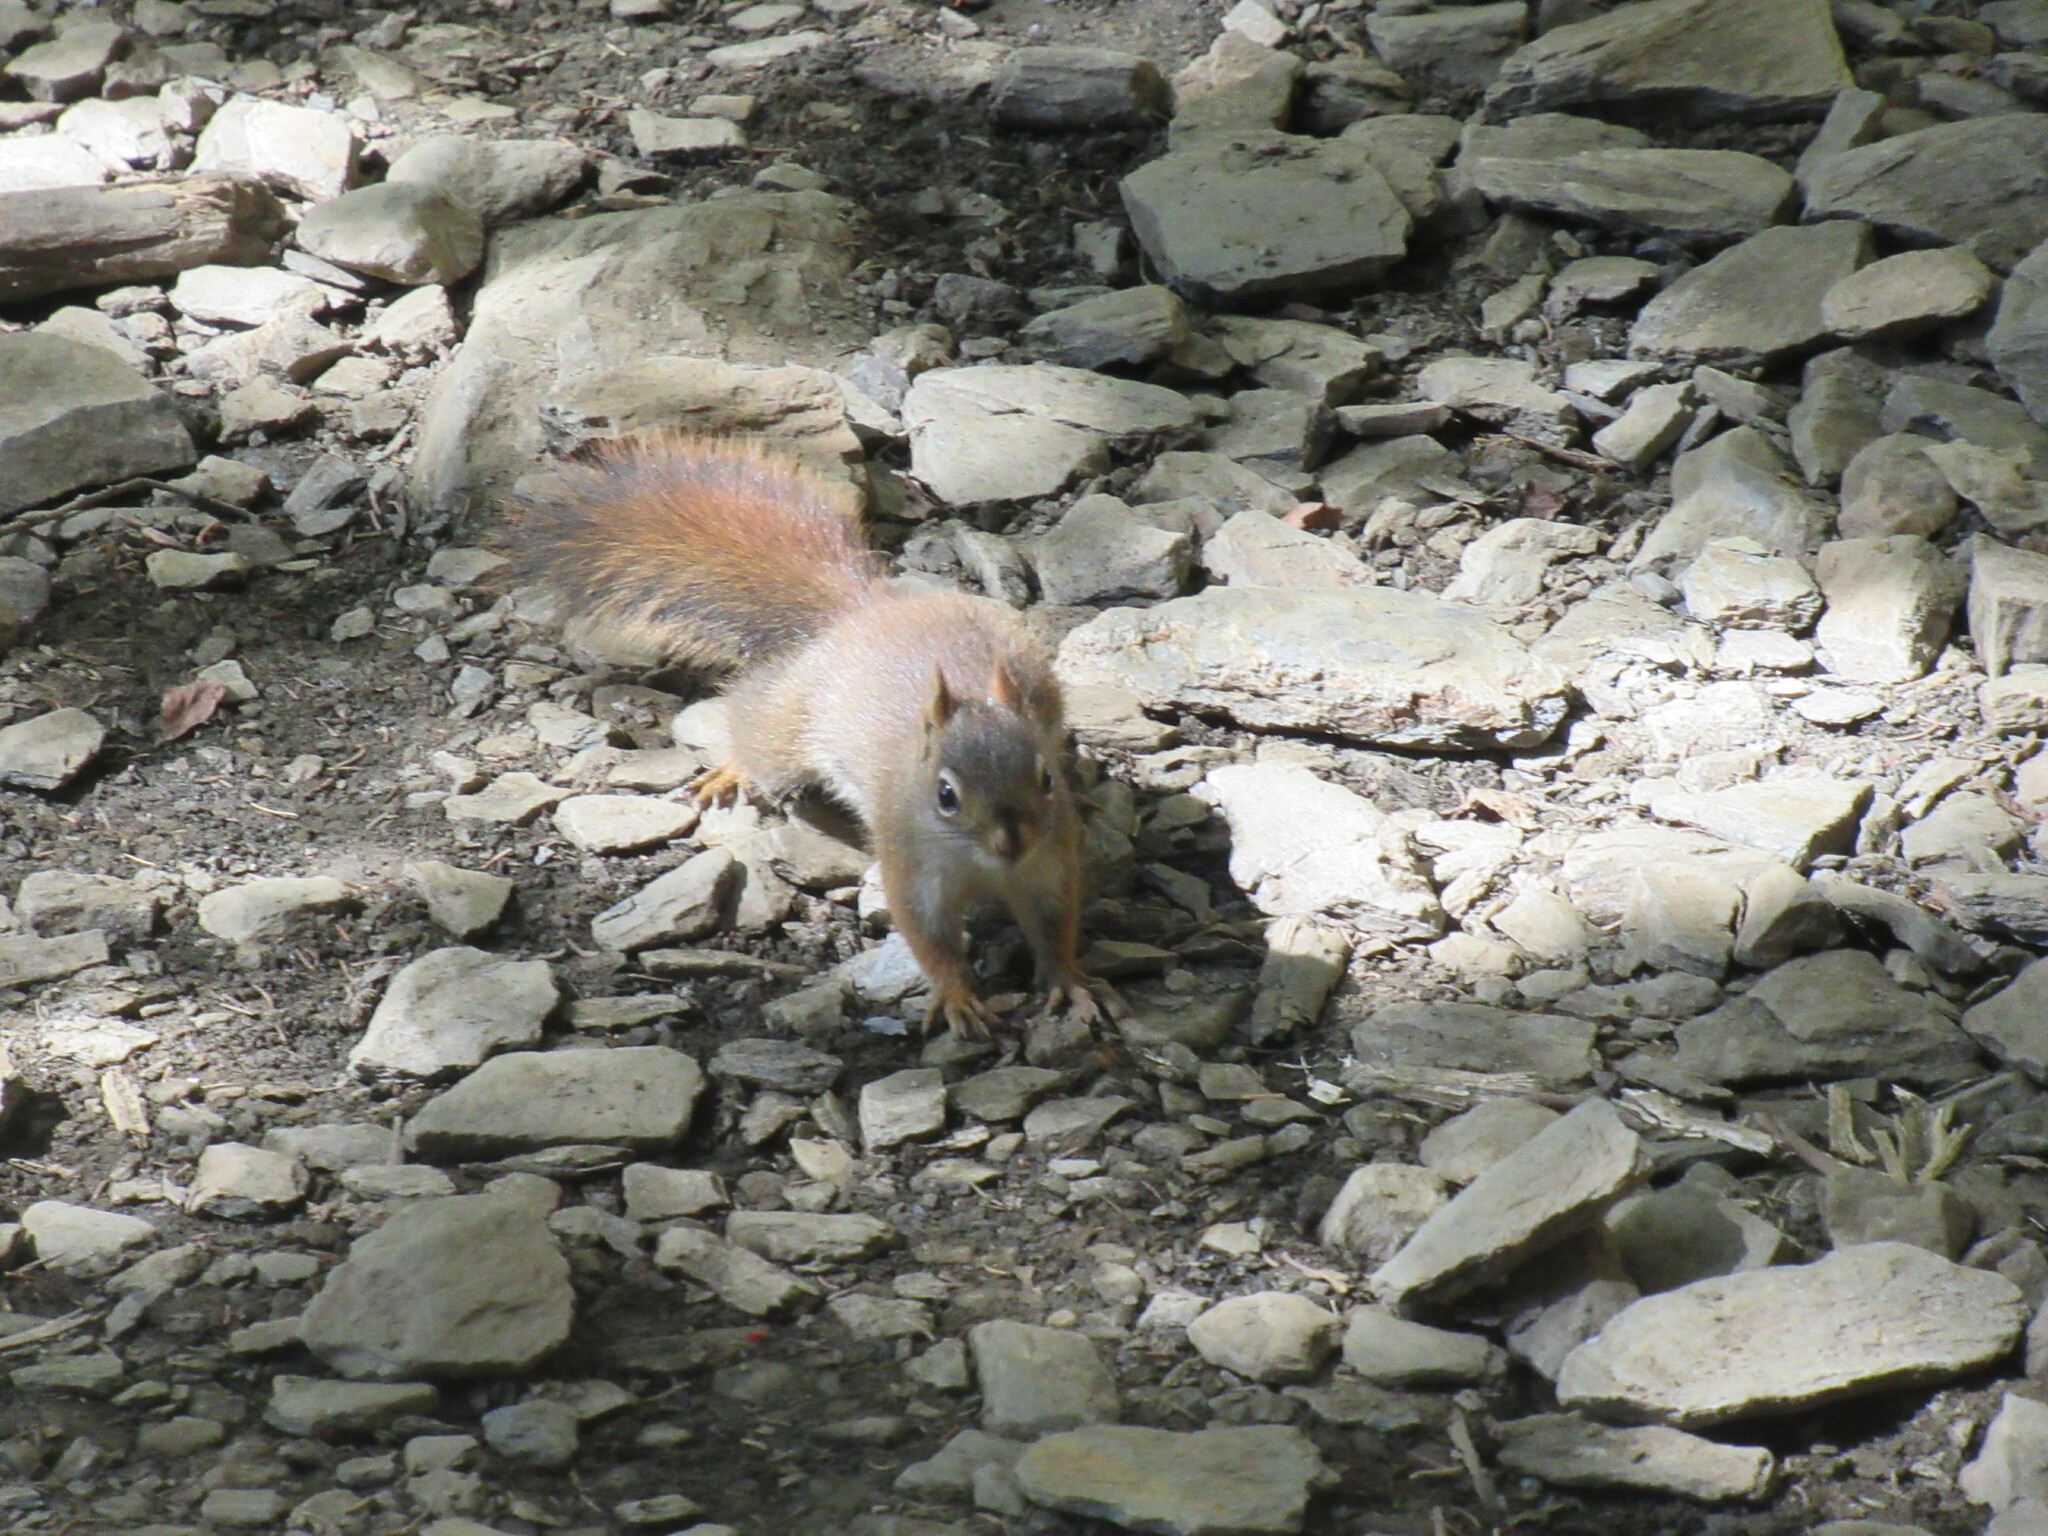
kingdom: Animalia
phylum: Chordata
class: Mammalia
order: Rodentia
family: Sciuridae
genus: Tamiasciurus
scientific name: Tamiasciurus hudsonicus
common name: Red squirrel
